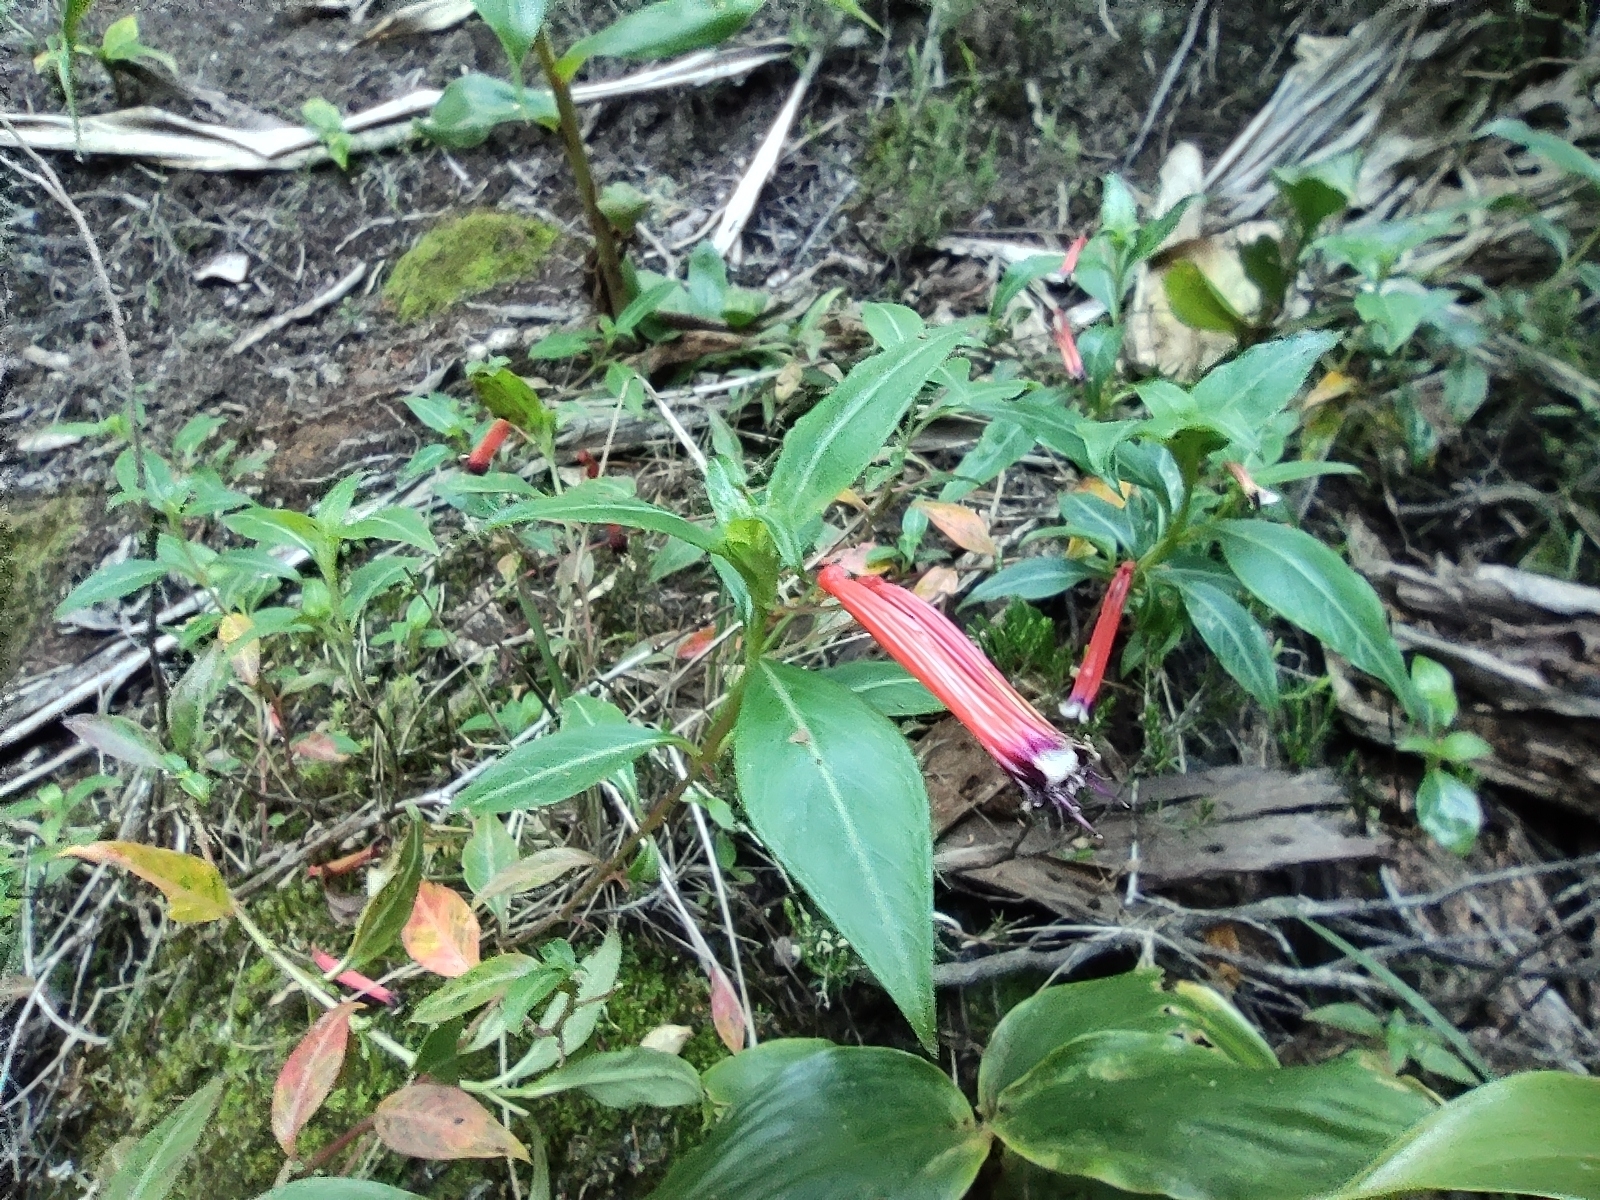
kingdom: Plantae
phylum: Tracheophyta
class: Magnoliopsida
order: Myrtales
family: Lythraceae
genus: Cuphea
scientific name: Cuphea ignea
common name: Cigar flower
